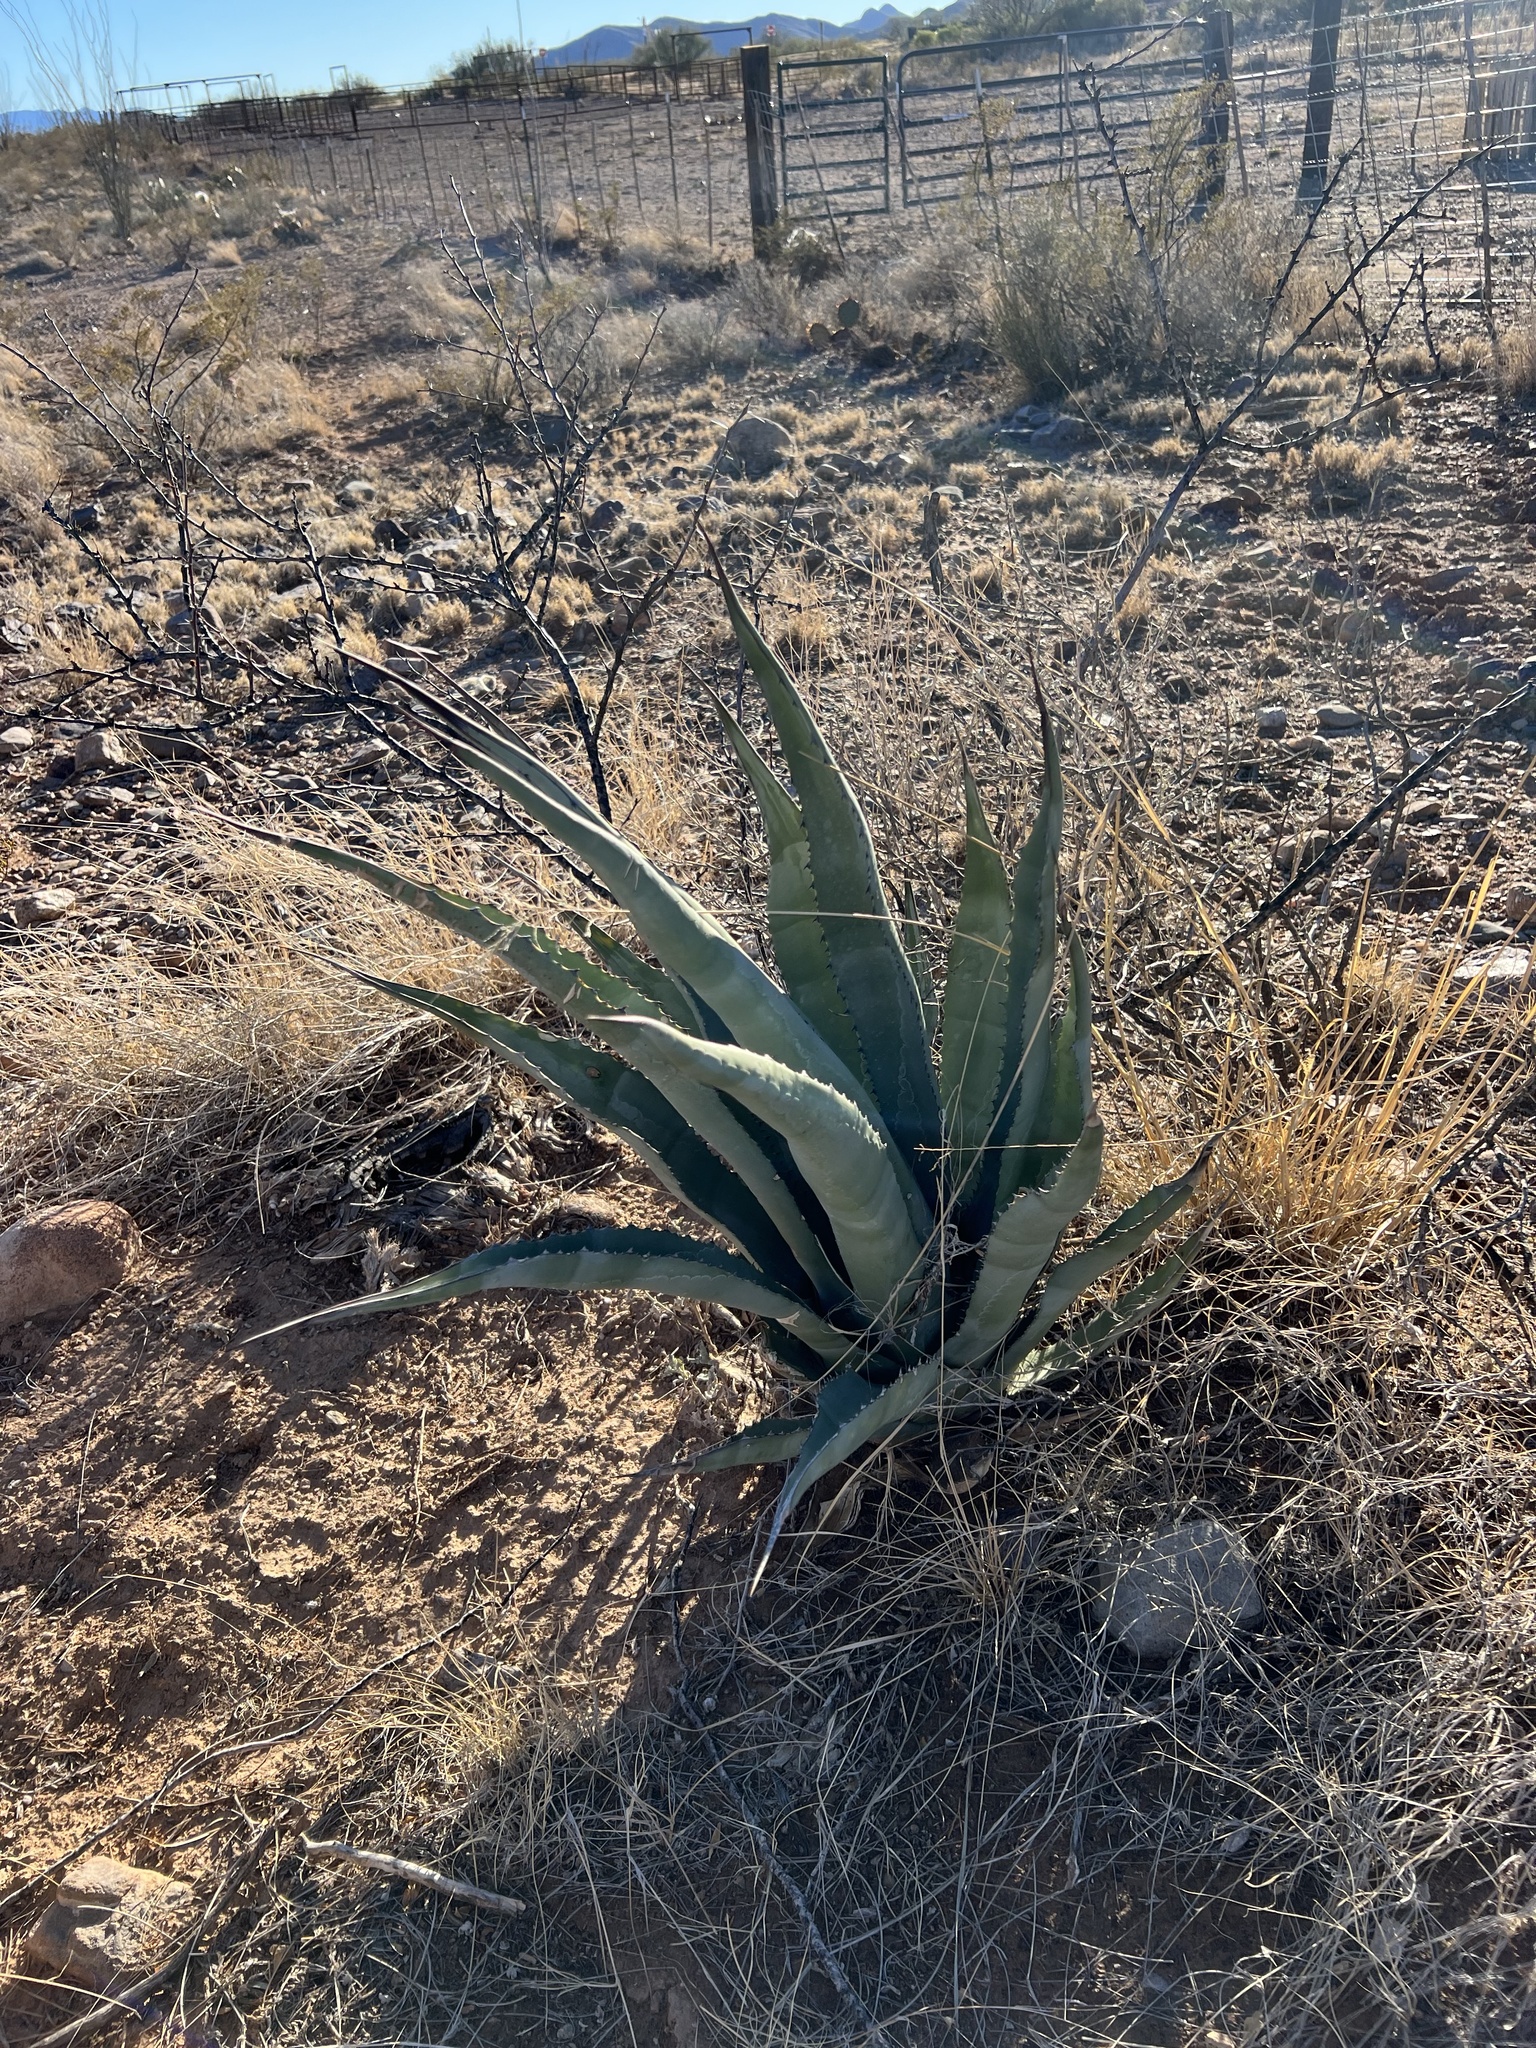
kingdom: Plantae
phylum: Tracheophyta
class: Liliopsida
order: Asparagales
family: Asparagaceae
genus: Agave
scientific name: Agave palmeri
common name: Palmer agave
